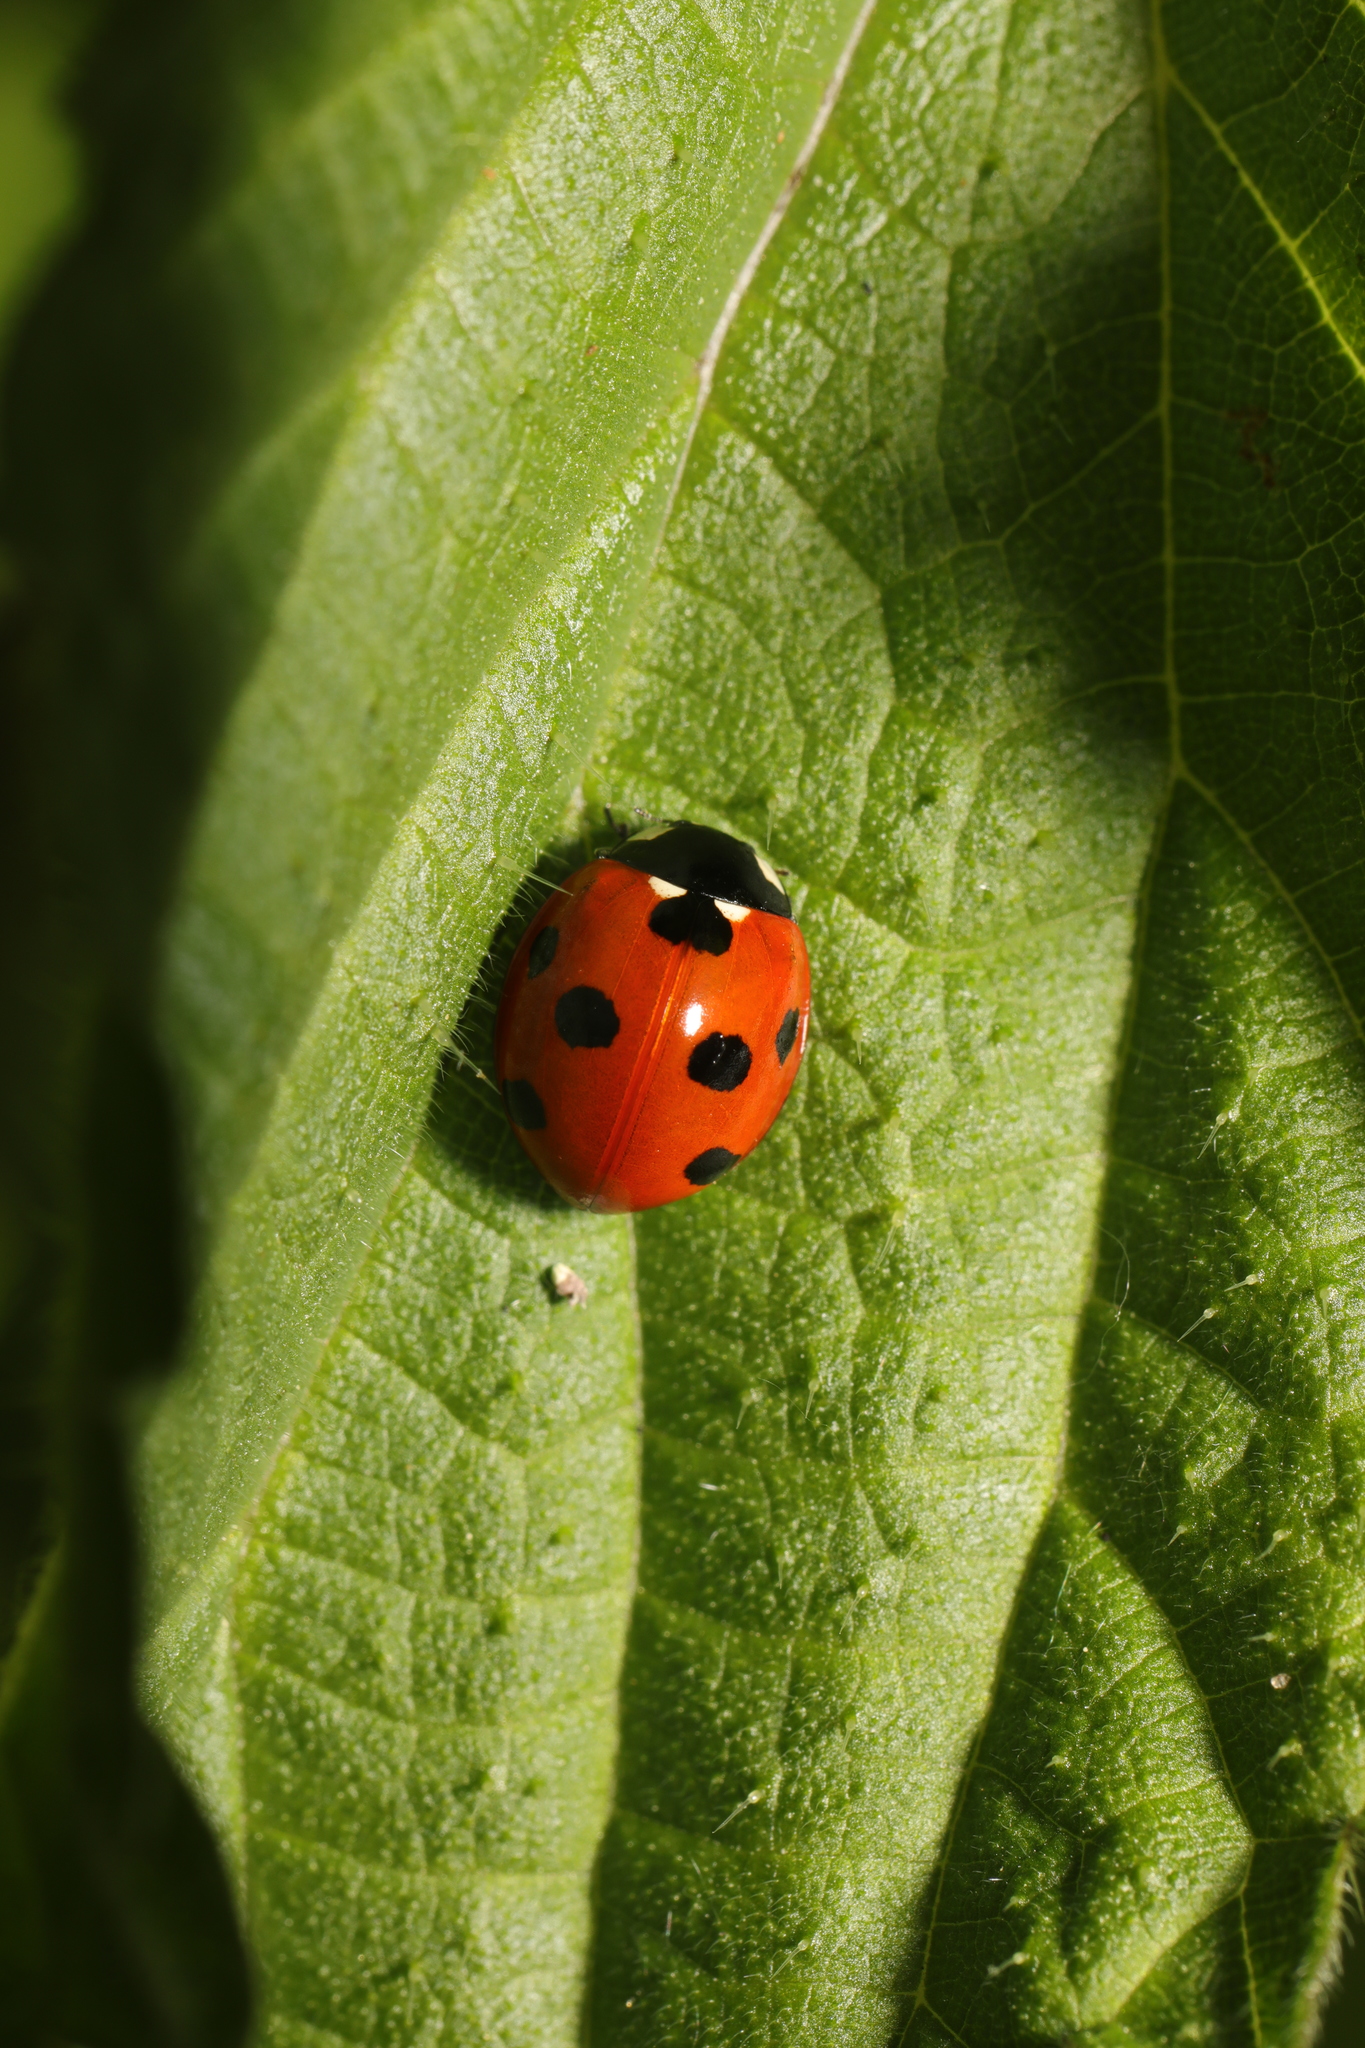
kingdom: Animalia
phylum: Arthropoda
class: Insecta
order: Coleoptera
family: Coccinellidae
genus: Coccinella
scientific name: Coccinella septempunctata
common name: Sevenspotted lady beetle
